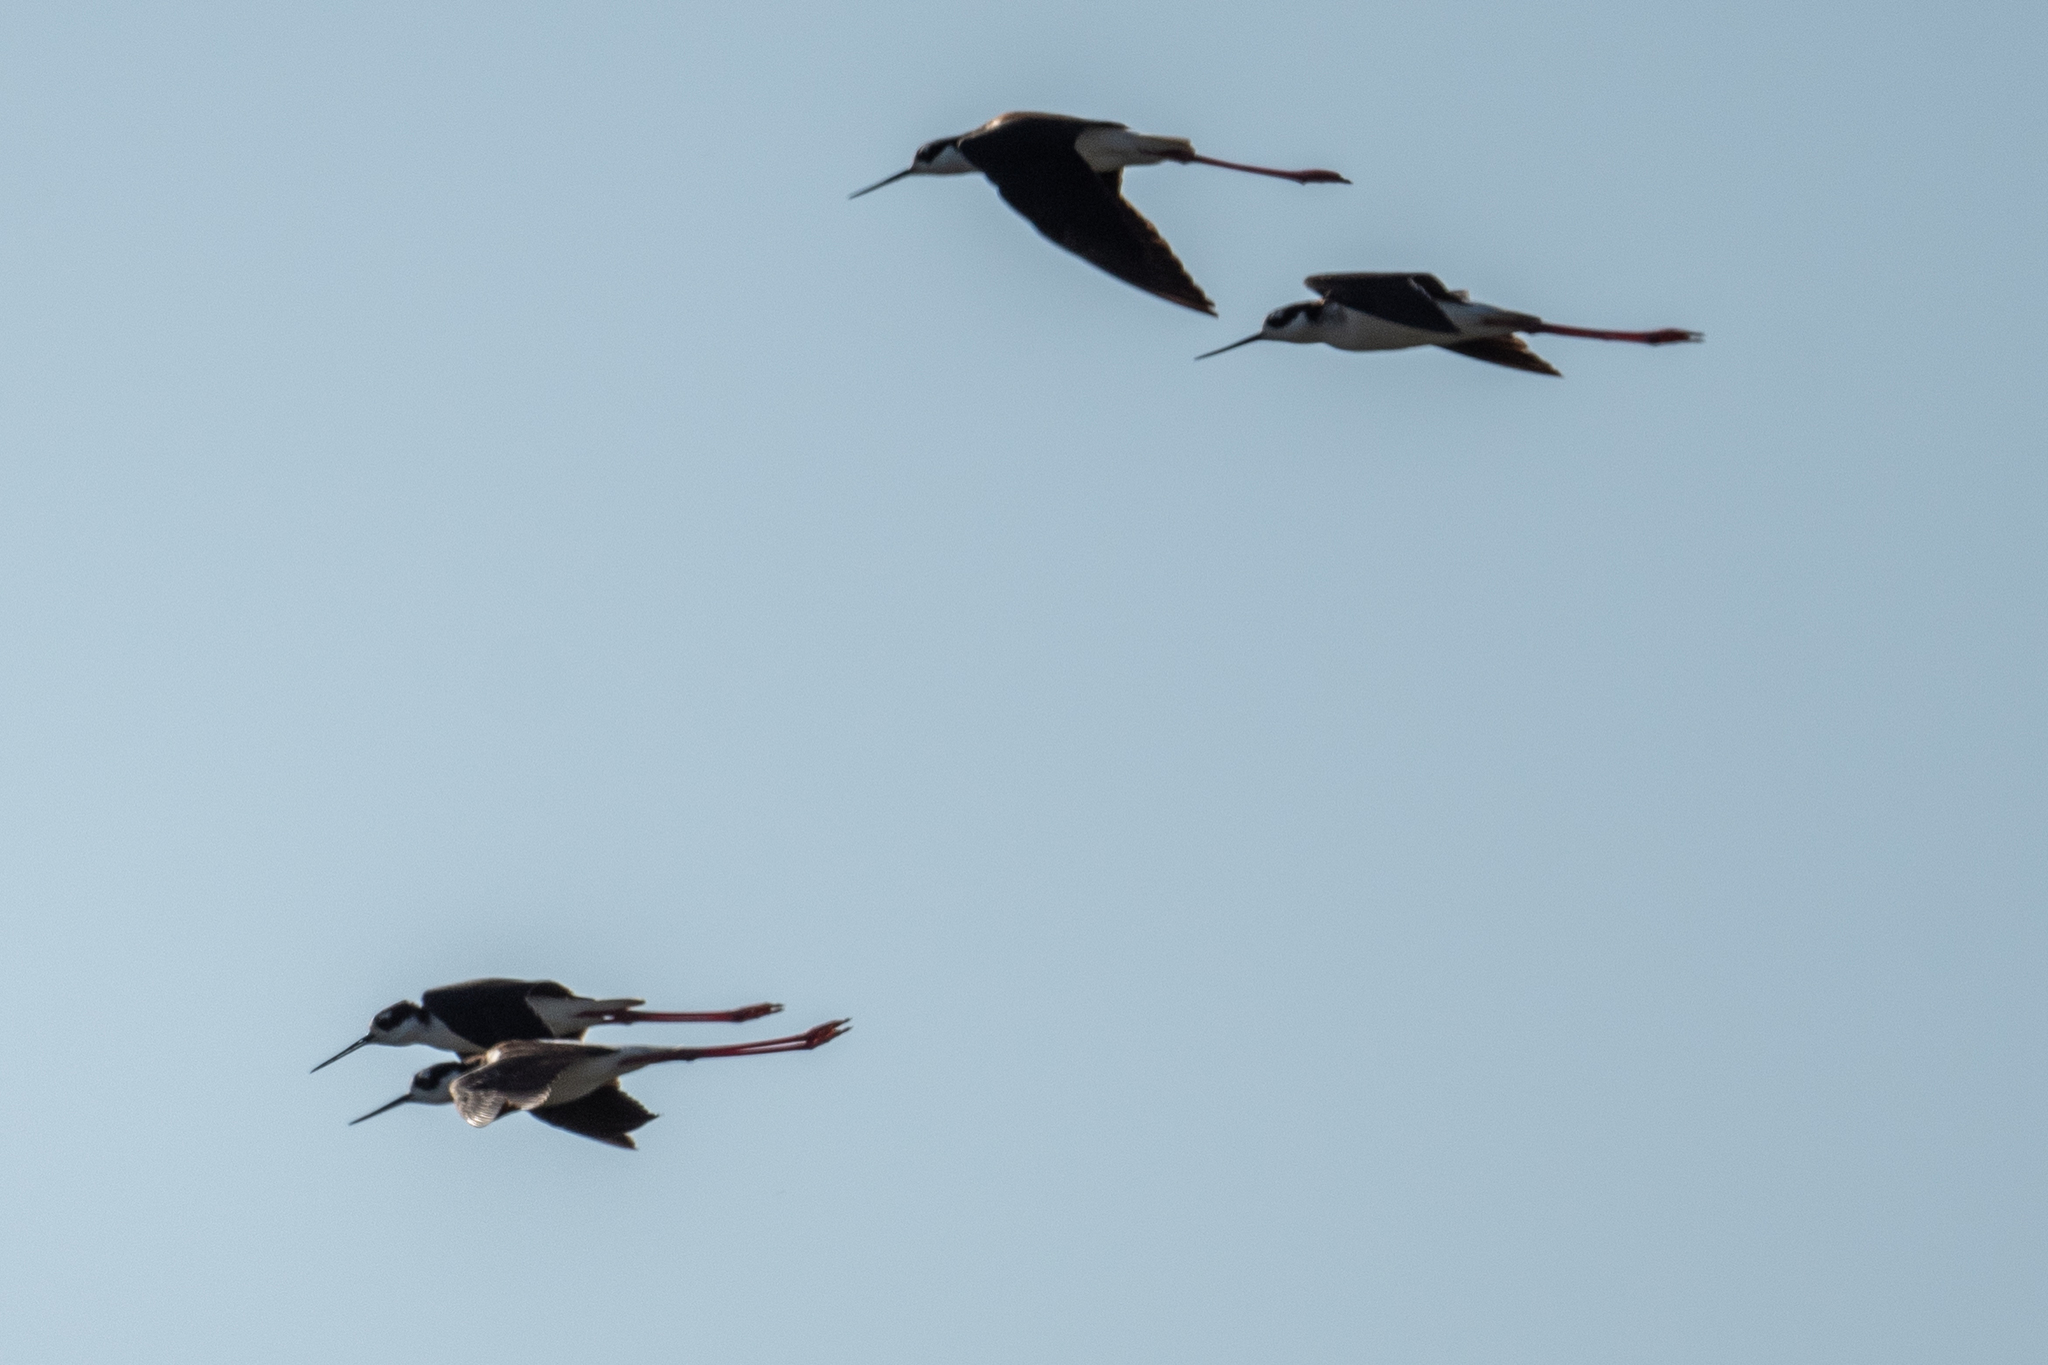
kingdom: Animalia
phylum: Chordata
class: Aves
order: Charadriiformes
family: Recurvirostridae
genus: Himantopus
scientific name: Himantopus mexicanus
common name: Black-necked stilt
